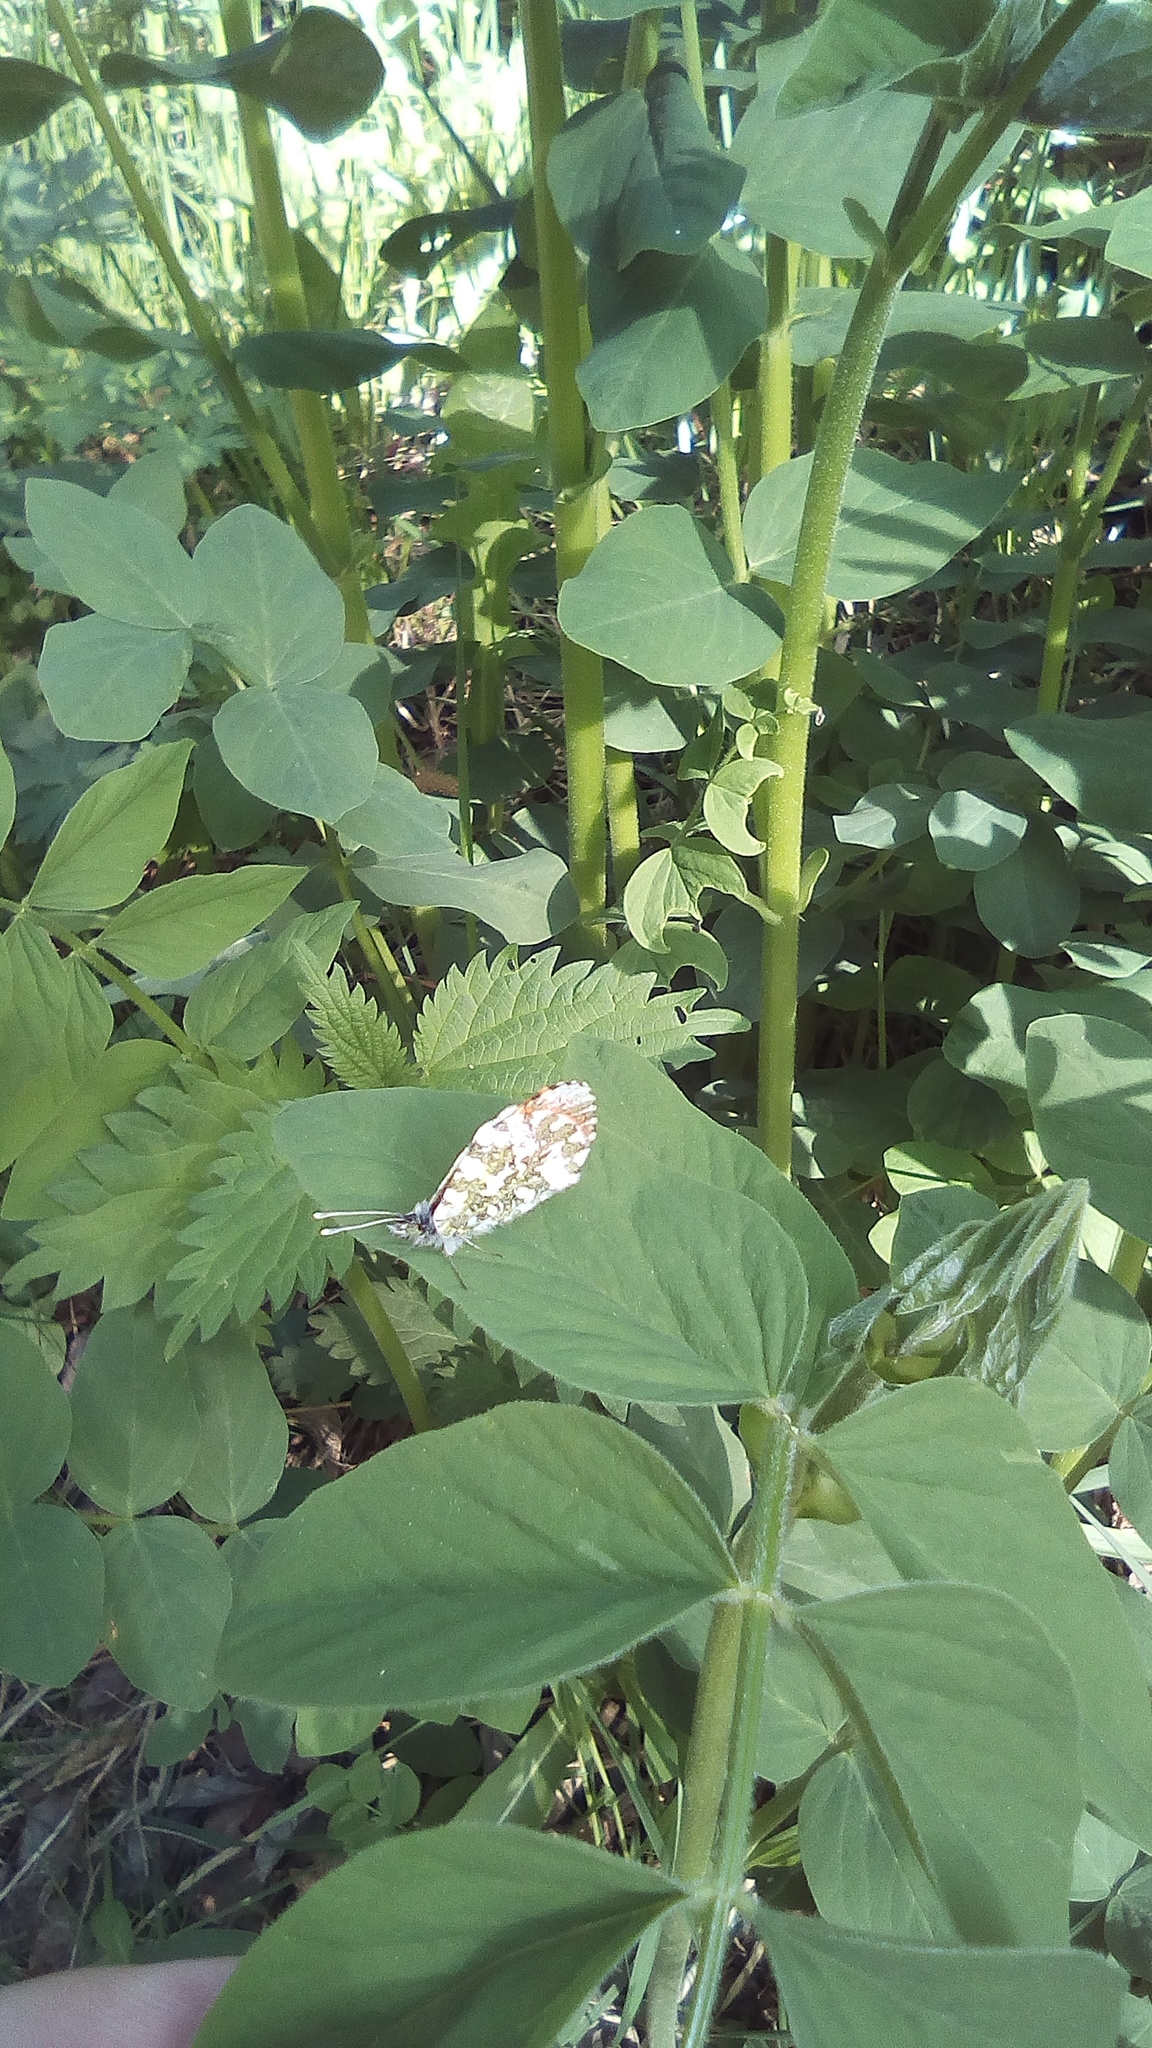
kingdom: Plantae
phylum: Tracheophyta
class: Magnoliopsida
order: Fabales
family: Fabaceae
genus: Galega
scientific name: Galega orientalis
